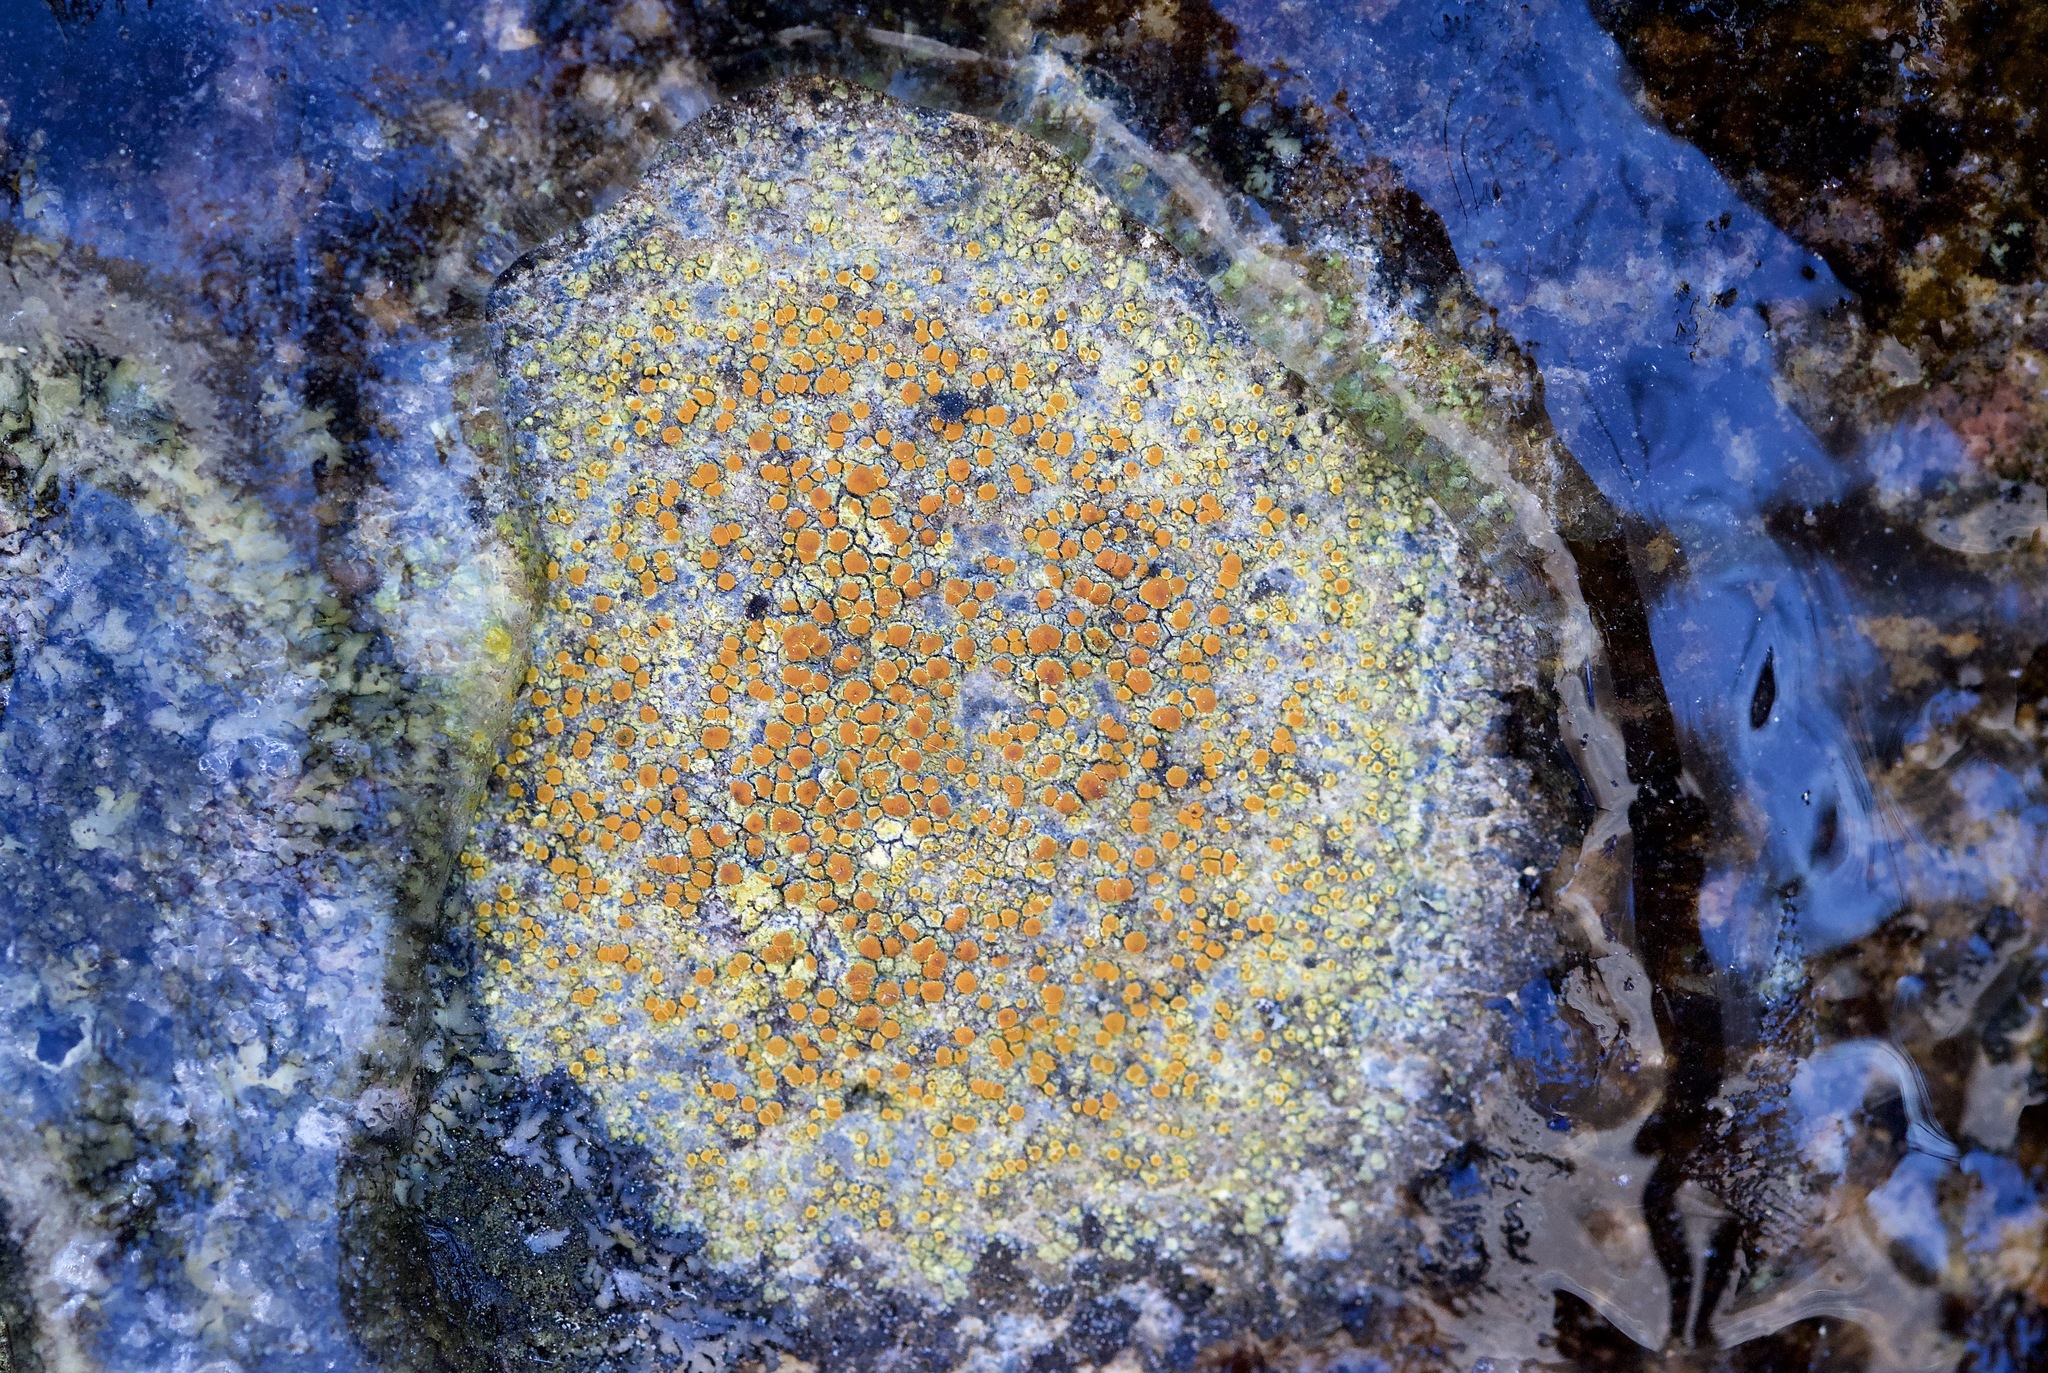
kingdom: Fungi
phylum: Ascomycota
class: Lecanoromycetes
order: Teloschistales
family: Teloschistaceae
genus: Gyalolechia
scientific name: Gyalolechia flavovirescens
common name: Sulphur firedot
